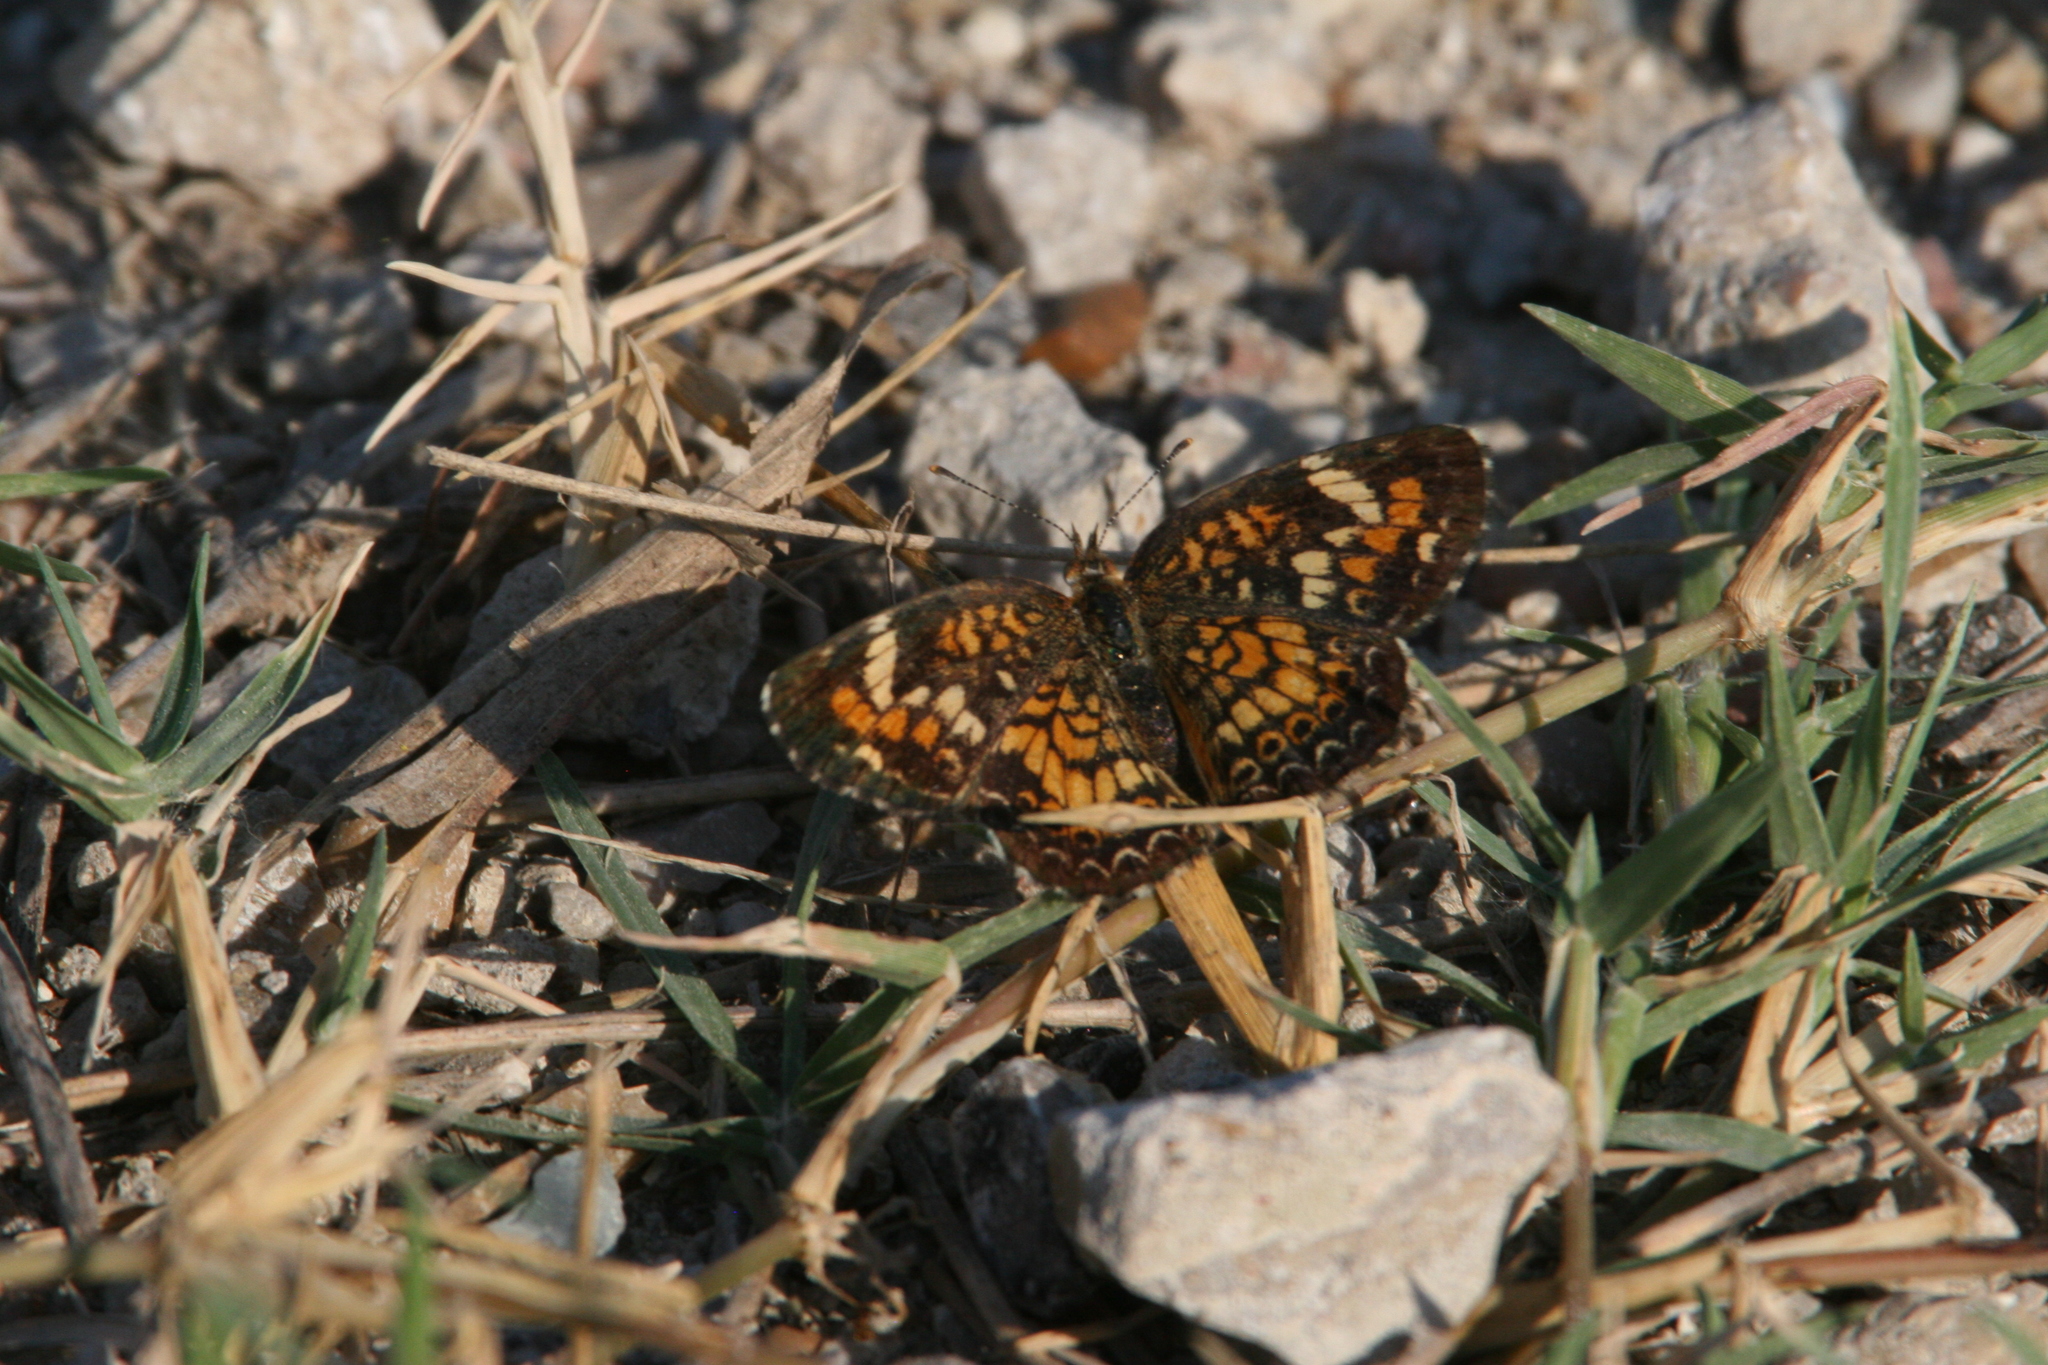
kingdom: Animalia
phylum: Arthropoda
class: Insecta
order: Lepidoptera
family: Nymphalidae
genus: Phyciodes
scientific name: Phyciodes phaon
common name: Phaon crescent
